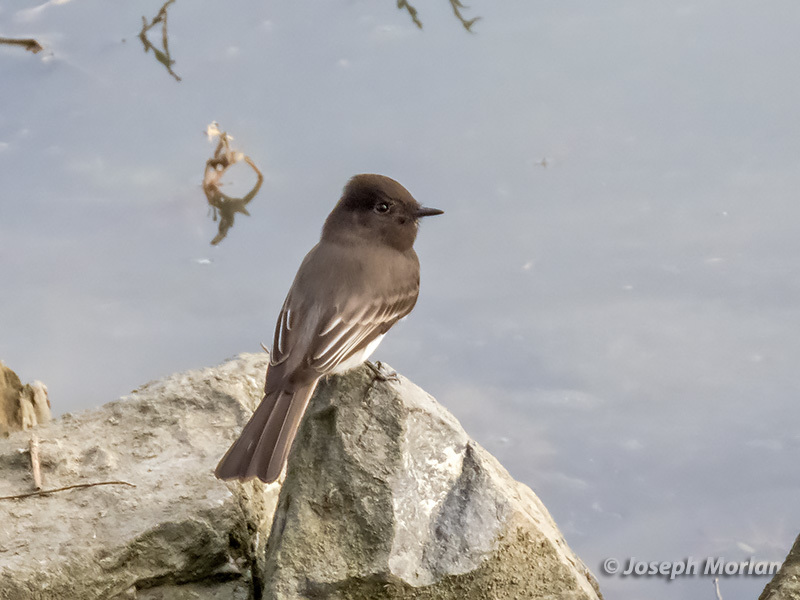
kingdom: Animalia
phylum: Chordata
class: Aves
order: Passeriformes
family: Tyrannidae
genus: Sayornis
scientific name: Sayornis nigricans
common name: Black phoebe
